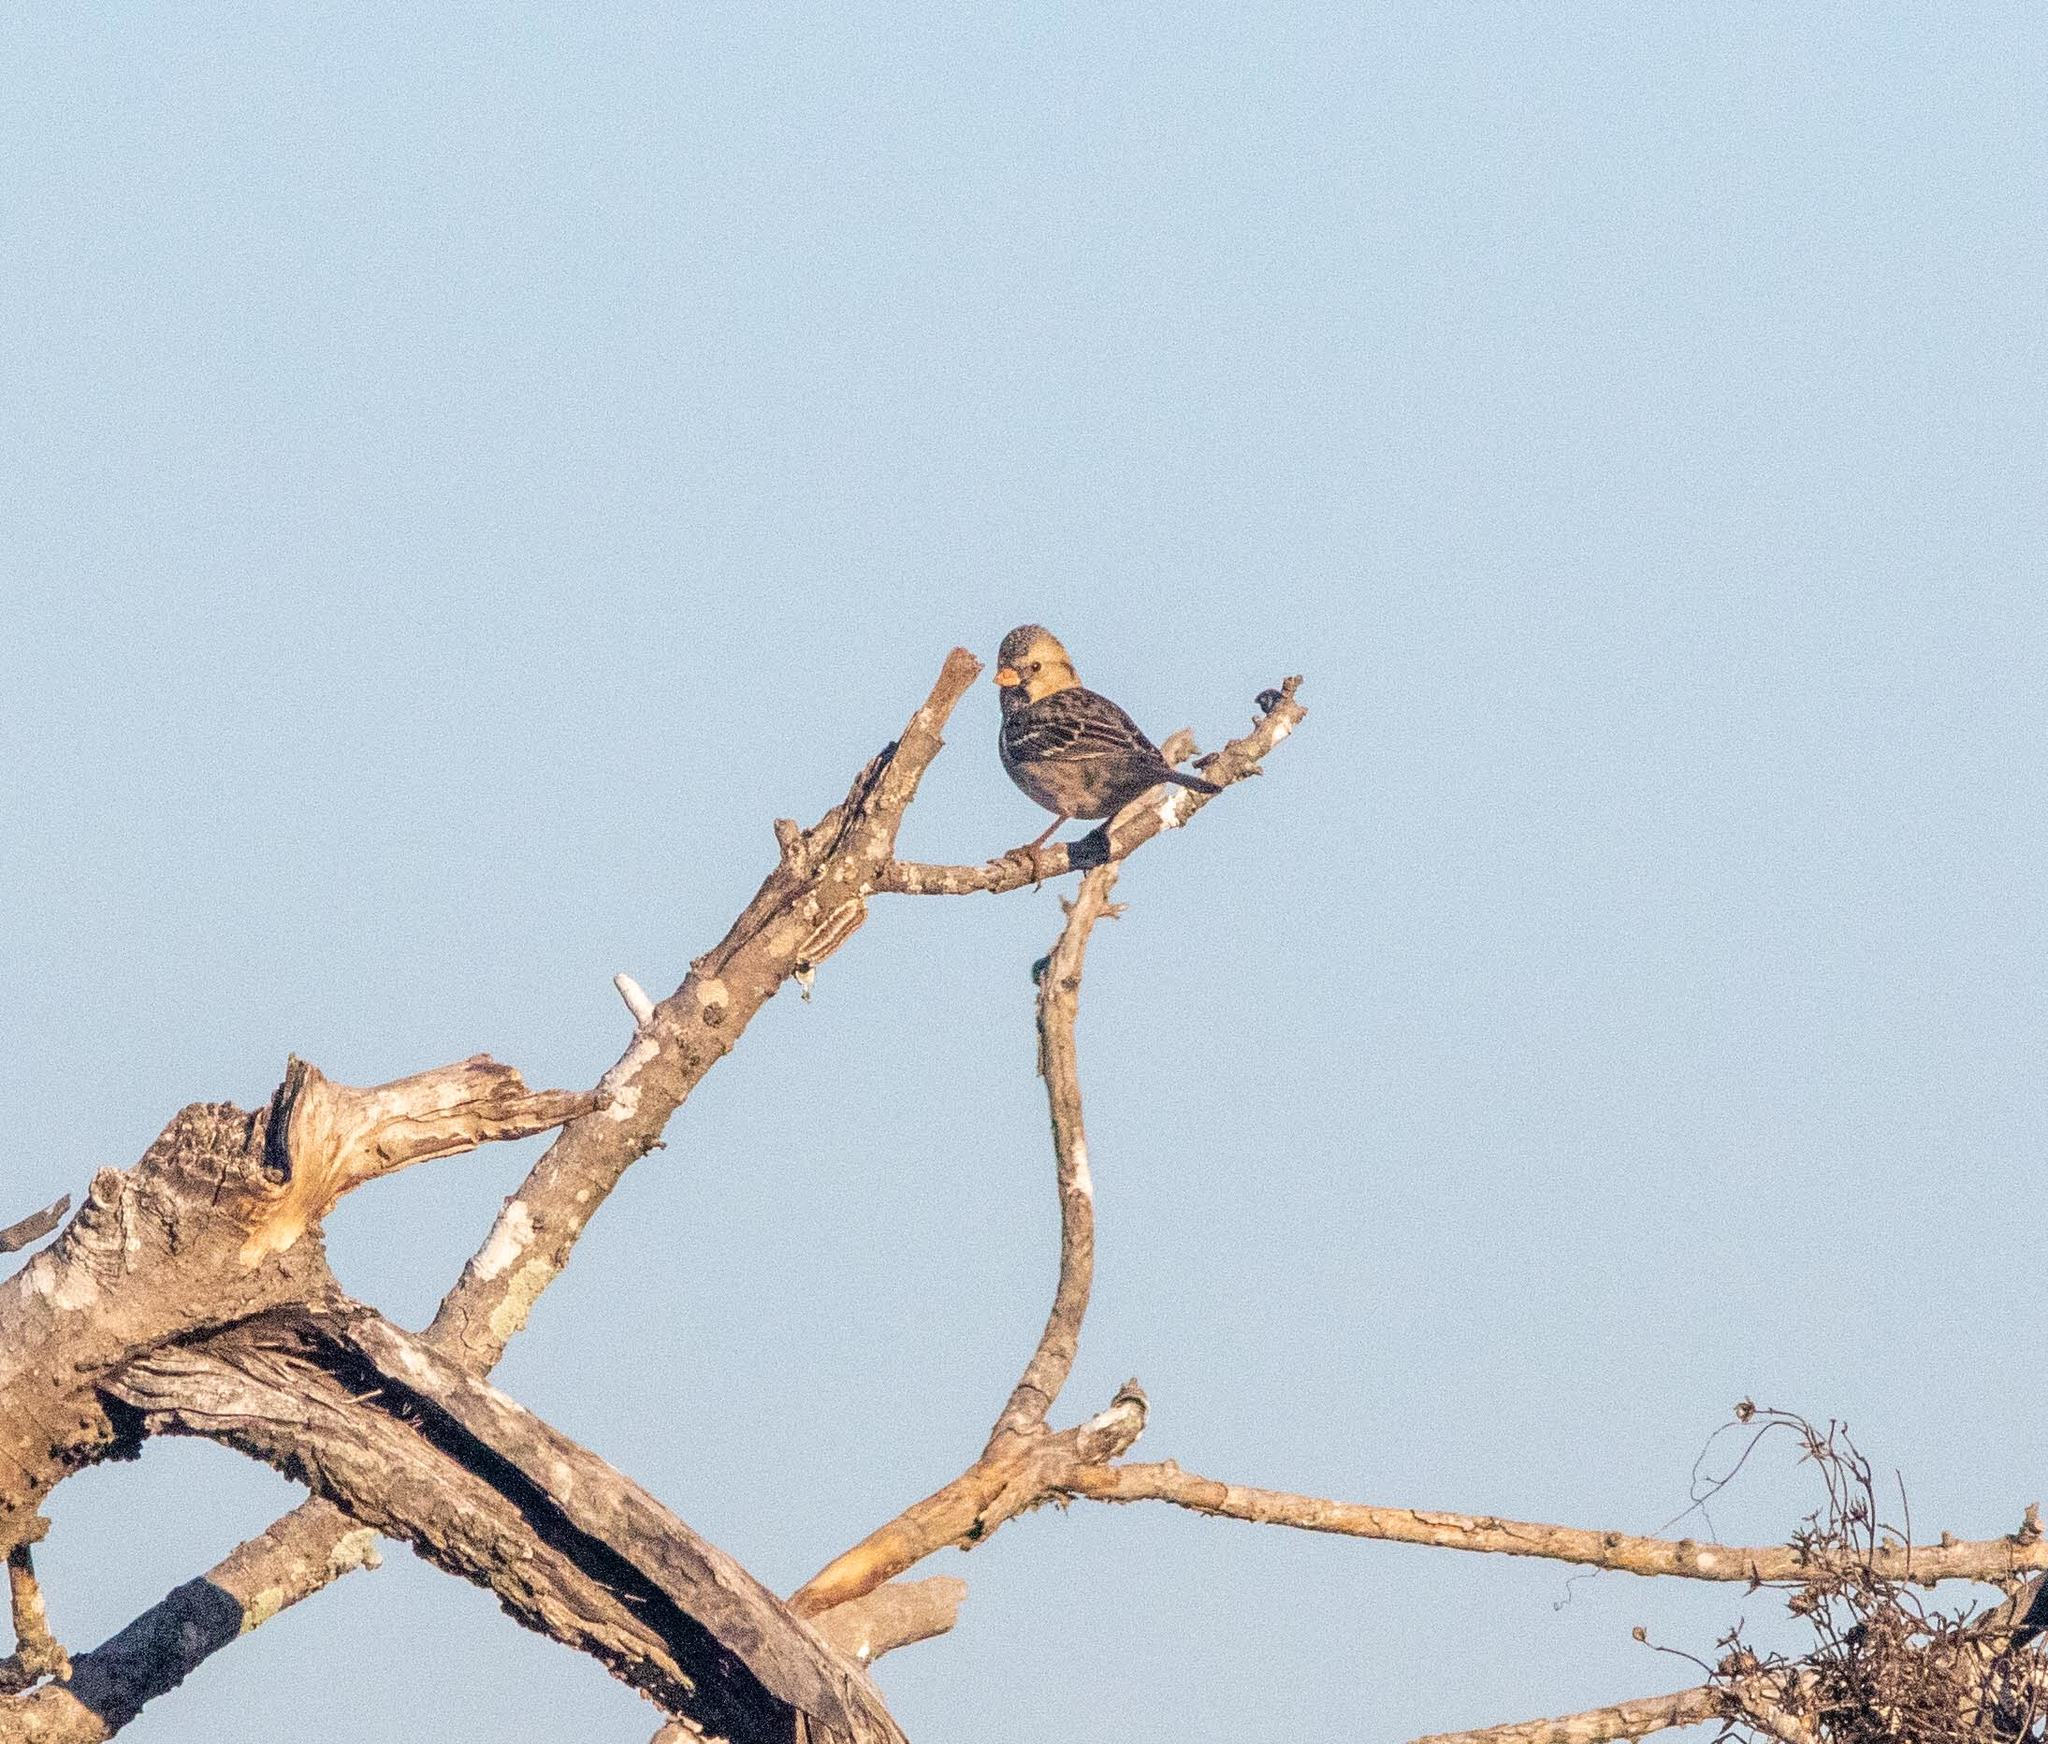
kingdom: Animalia
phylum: Chordata
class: Aves
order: Passeriformes
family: Passerellidae
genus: Zonotrichia
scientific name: Zonotrichia querula
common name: Harris's sparrow
